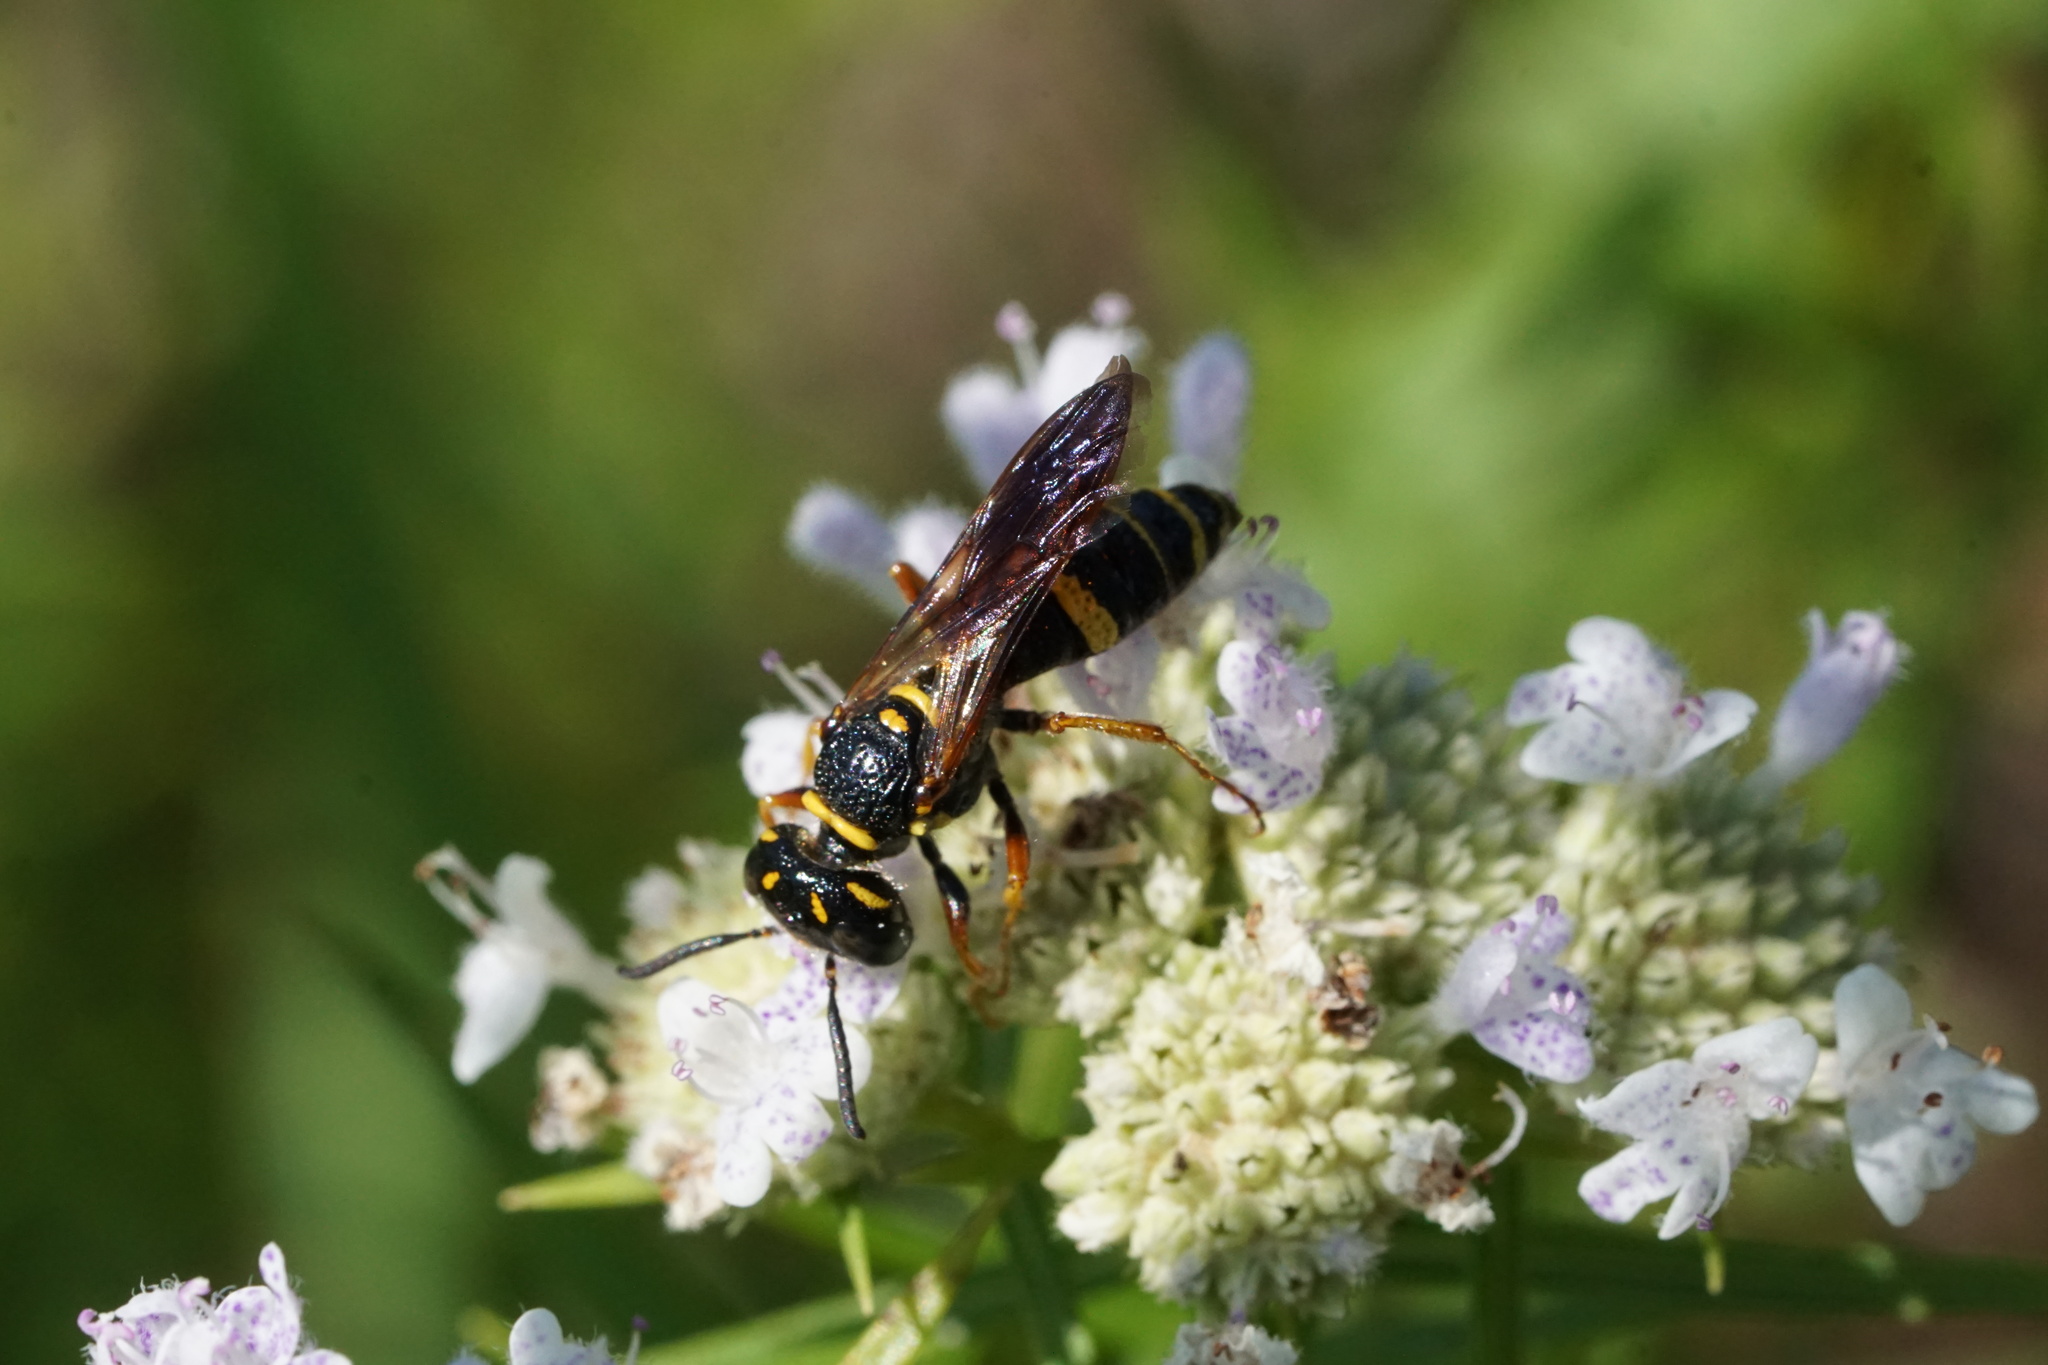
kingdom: Animalia
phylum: Arthropoda
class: Insecta
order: Hymenoptera
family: Crabronidae
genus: Philanthus
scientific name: Philanthus gibbosus
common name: Humped beewolf
